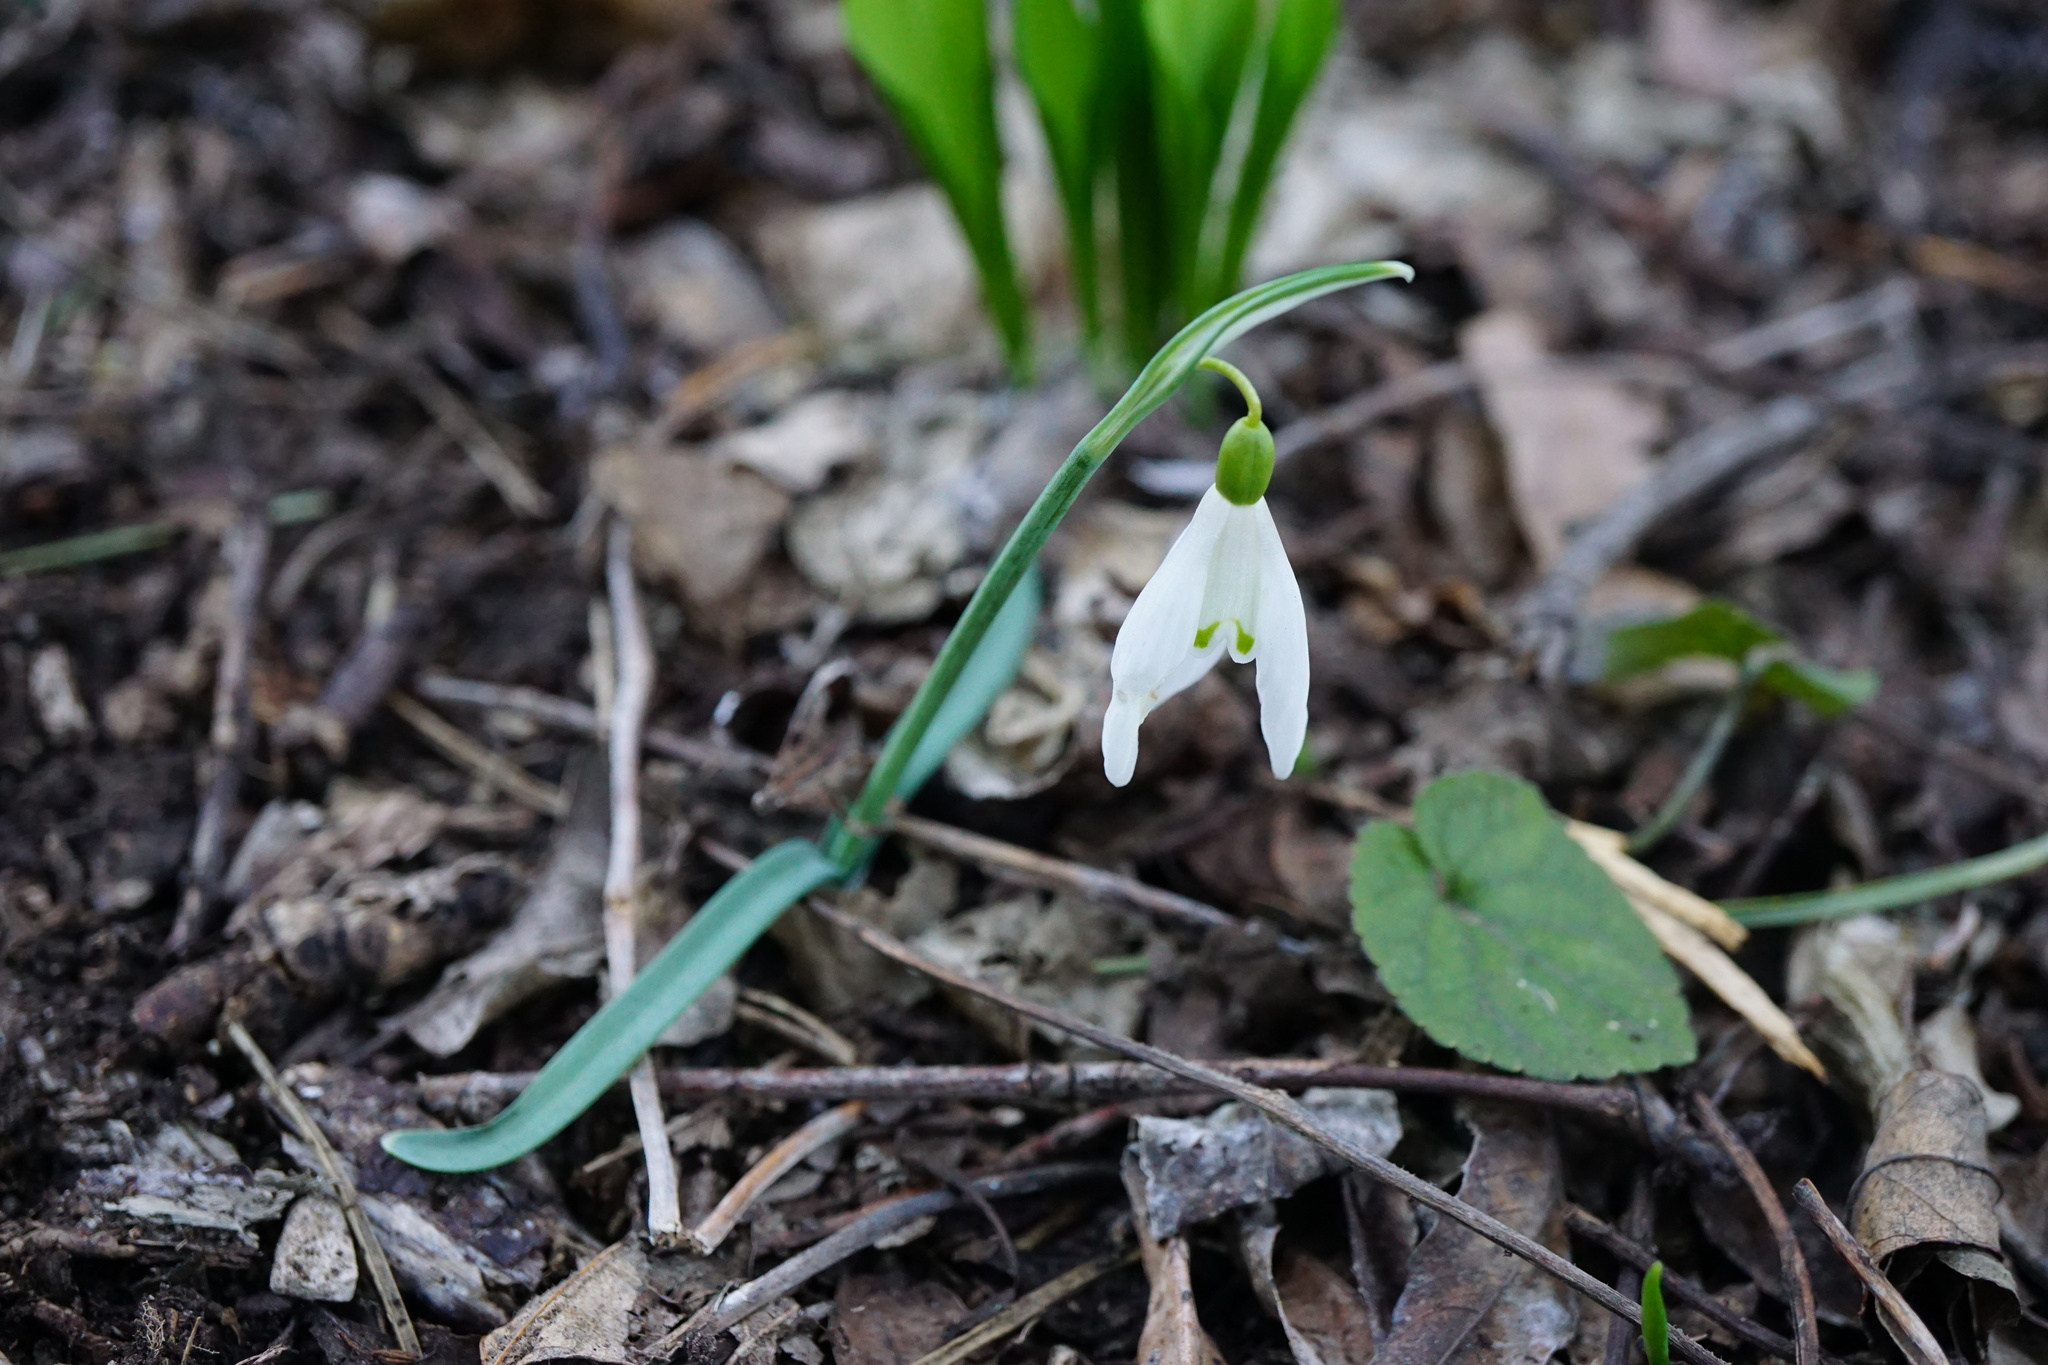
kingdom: Plantae
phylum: Tracheophyta
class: Liliopsida
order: Asparagales
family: Amaryllidaceae
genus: Galanthus
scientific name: Galanthus nivalis
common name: Snowdrop
